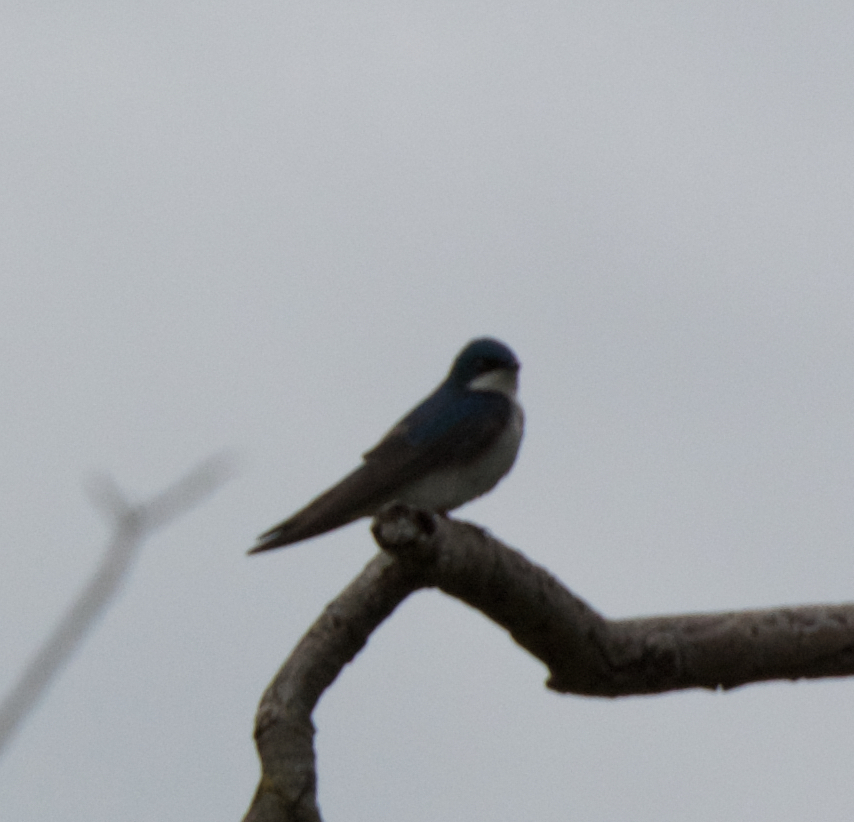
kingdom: Animalia
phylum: Chordata
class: Aves
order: Passeriformes
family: Hirundinidae
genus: Tachycineta
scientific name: Tachycineta bicolor
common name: Tree swallow
